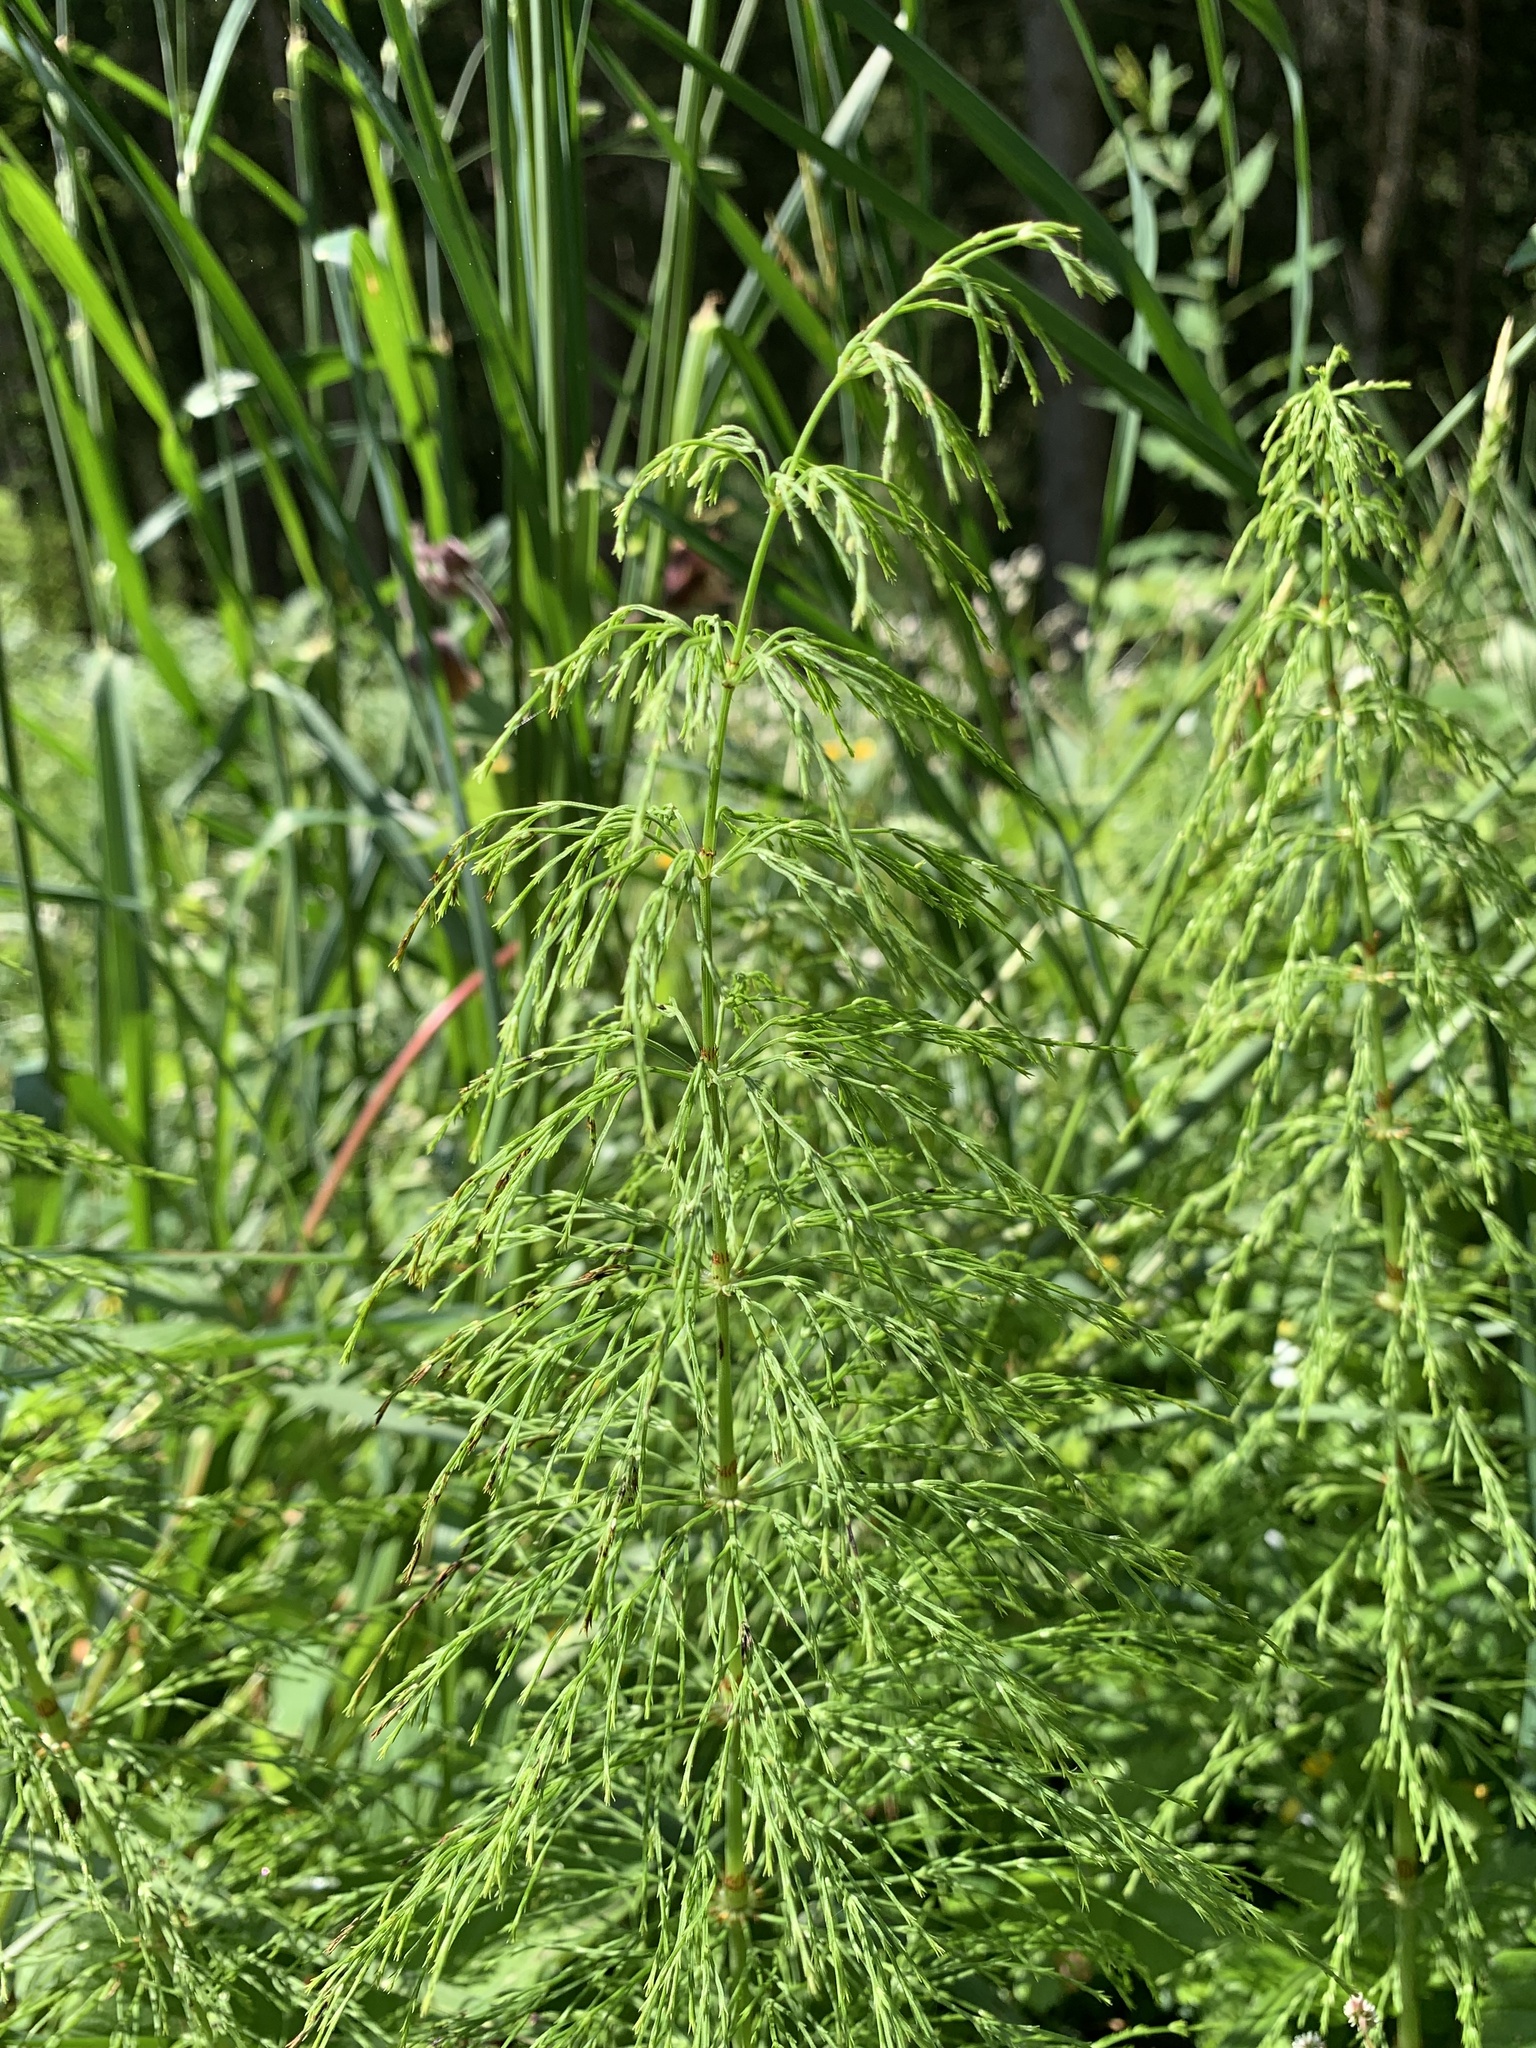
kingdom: Plantae
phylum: Tracheophyta
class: Polypodiopsida
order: Equisetales
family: Equisetaceae
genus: Equisetum
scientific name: Equisetum sylvaticum
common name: Wood horsetail
